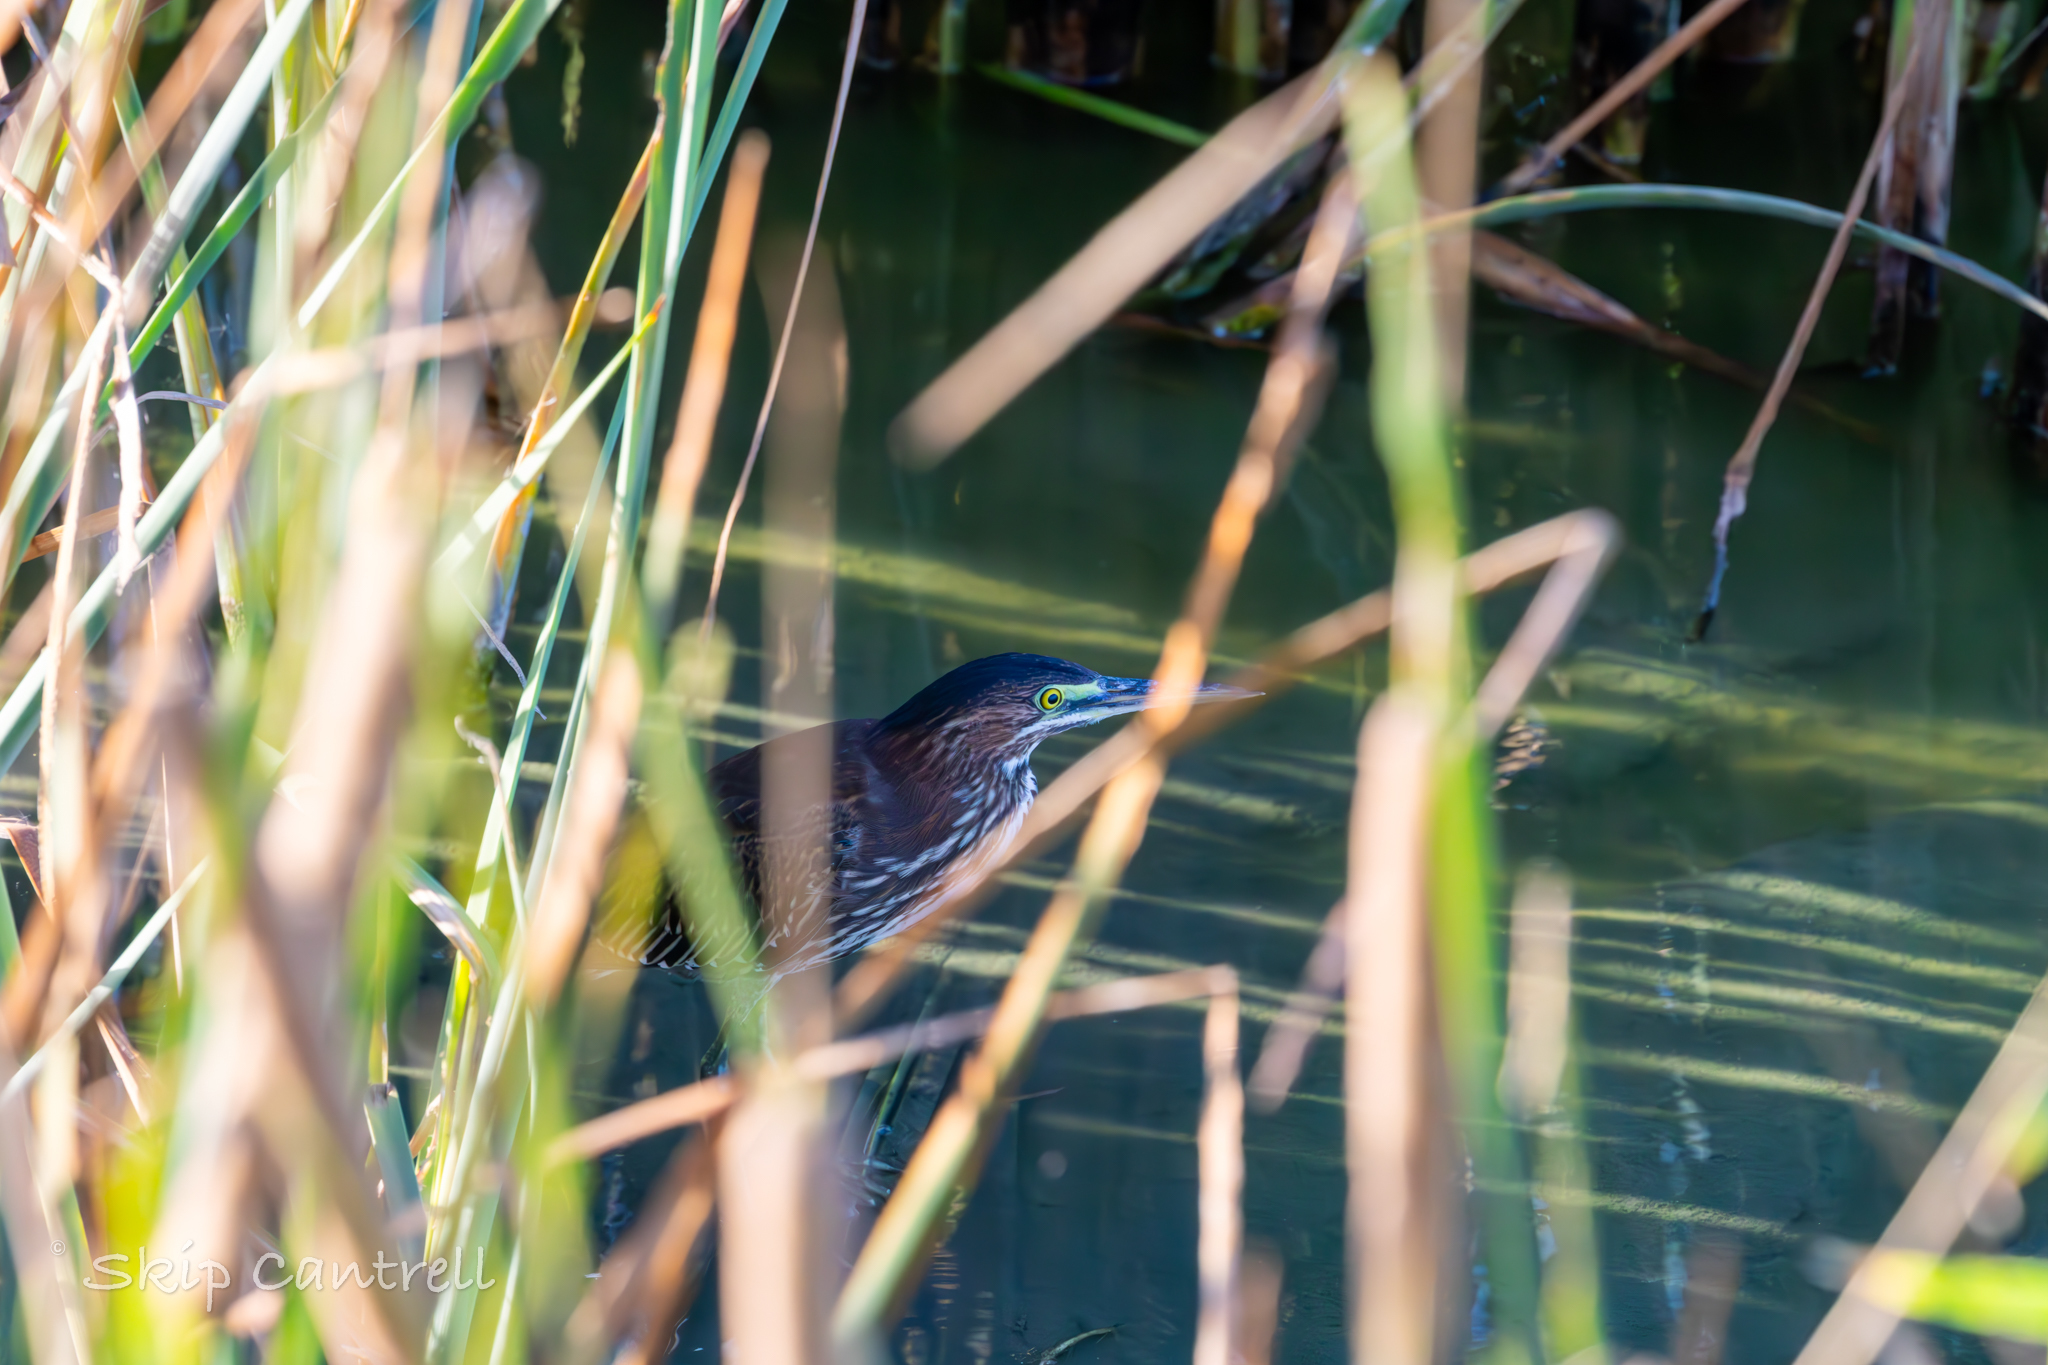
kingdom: Animalia
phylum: Chordata
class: Aves
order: Pelecaniformes
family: Ardeidae
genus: Butorides
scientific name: Butorides virescens
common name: Green heron
